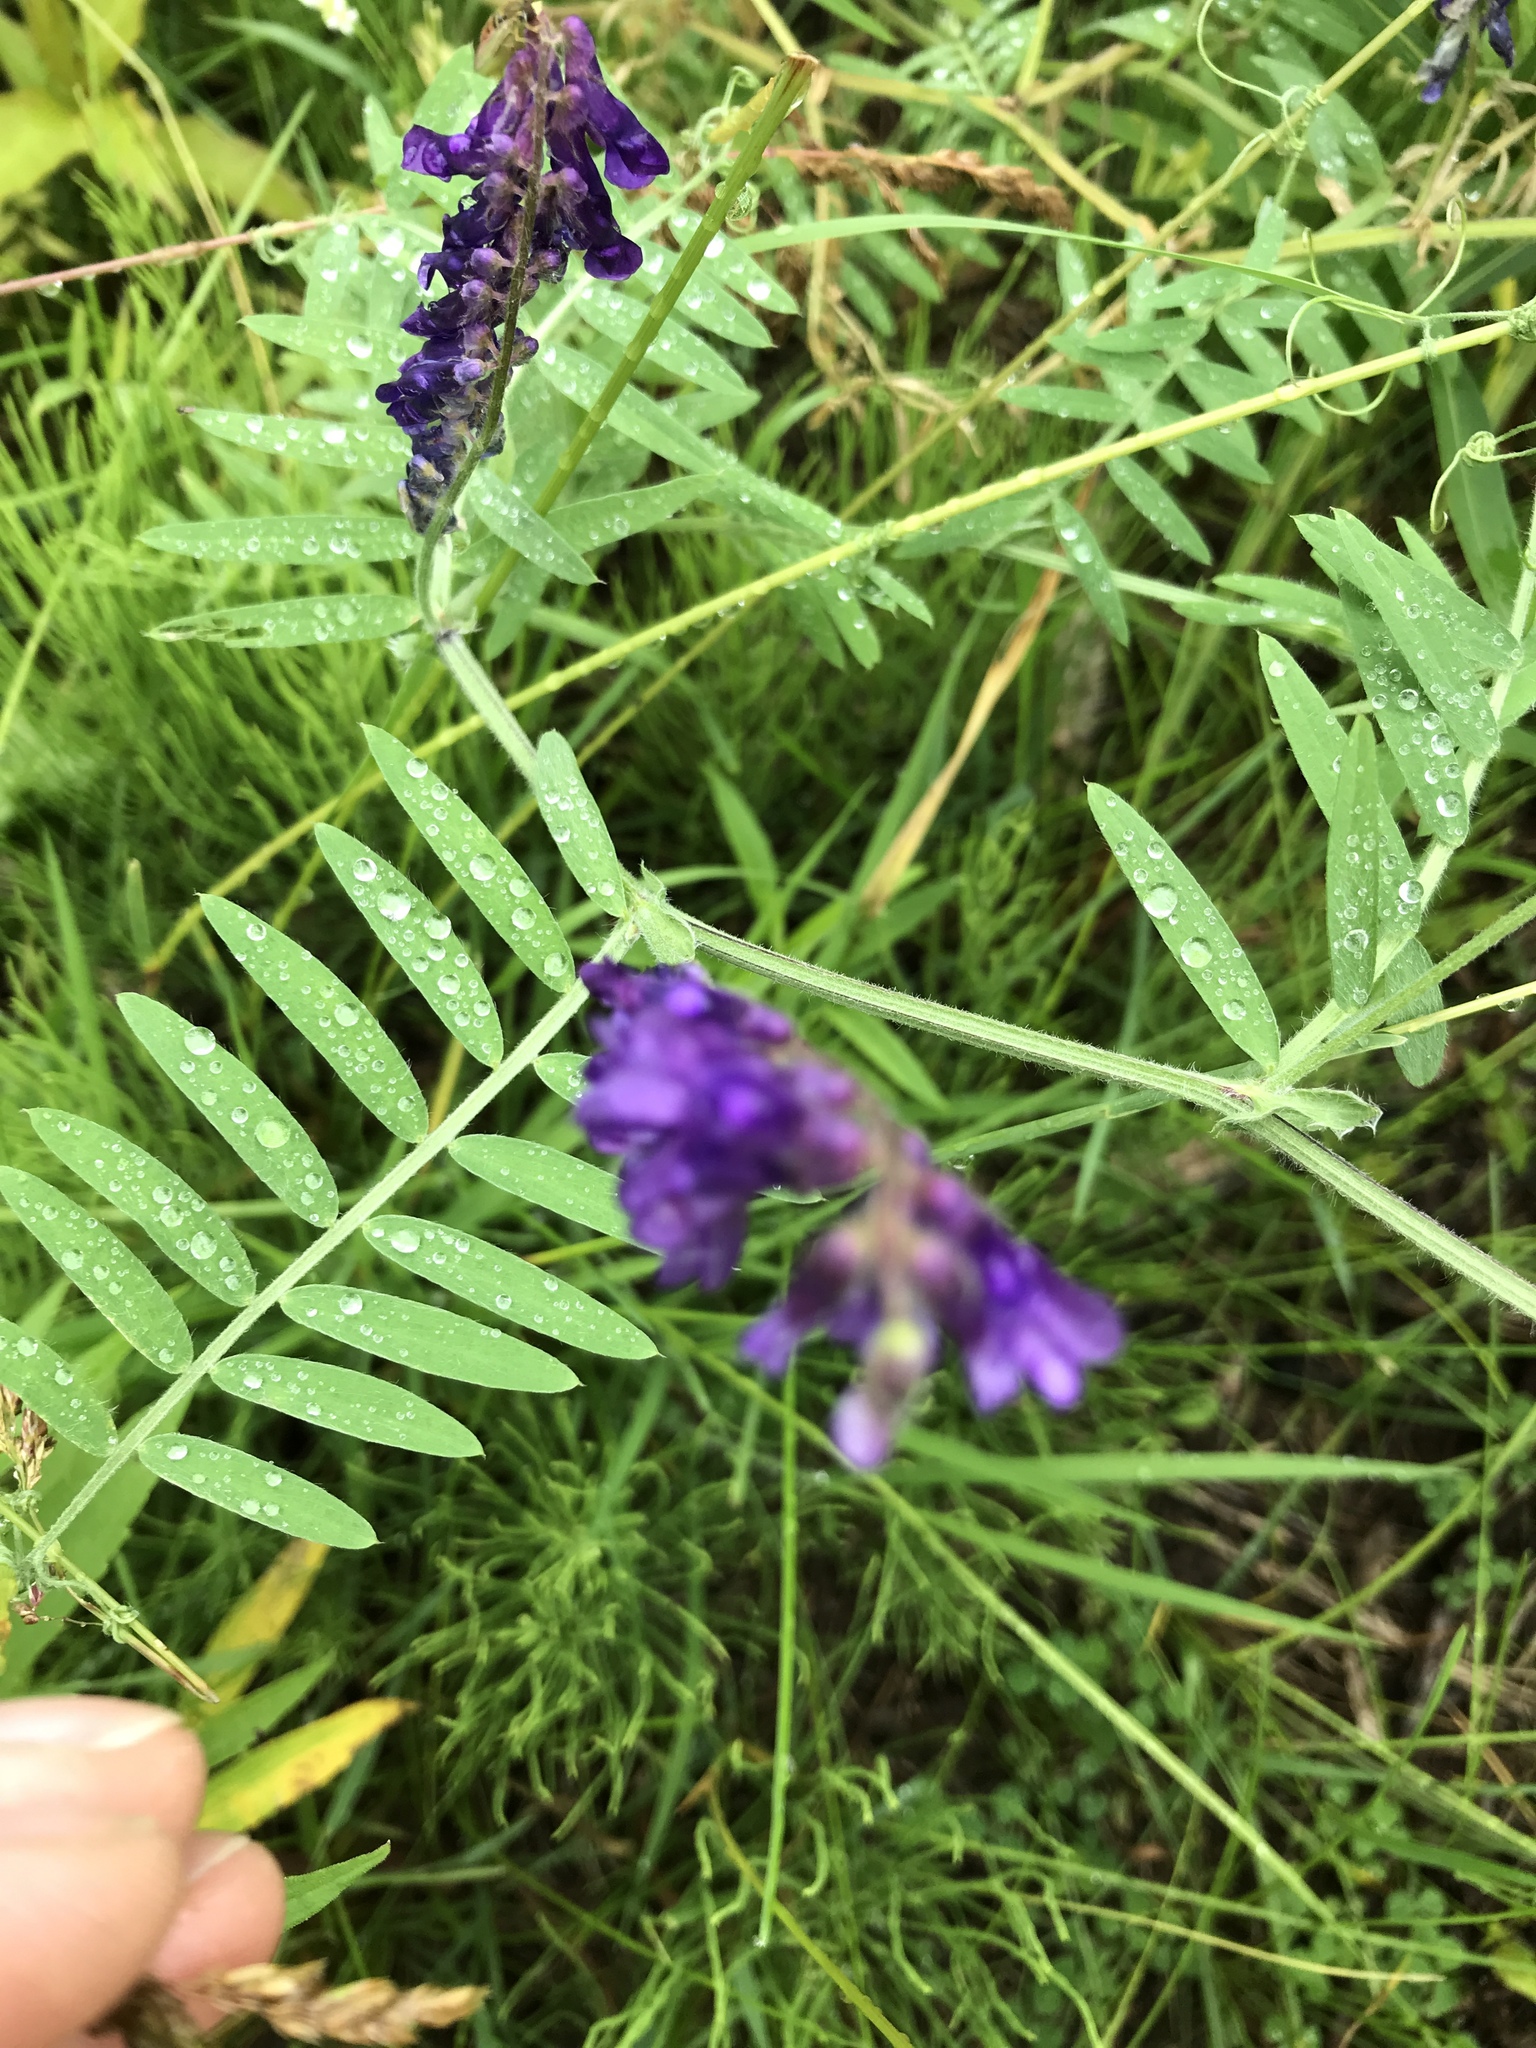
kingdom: Plantae
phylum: Tracheophyta
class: Magnoliopsida
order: Fabales
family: Fabaceae
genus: Vicia
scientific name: Vicia villosa
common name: Fodder vetch
